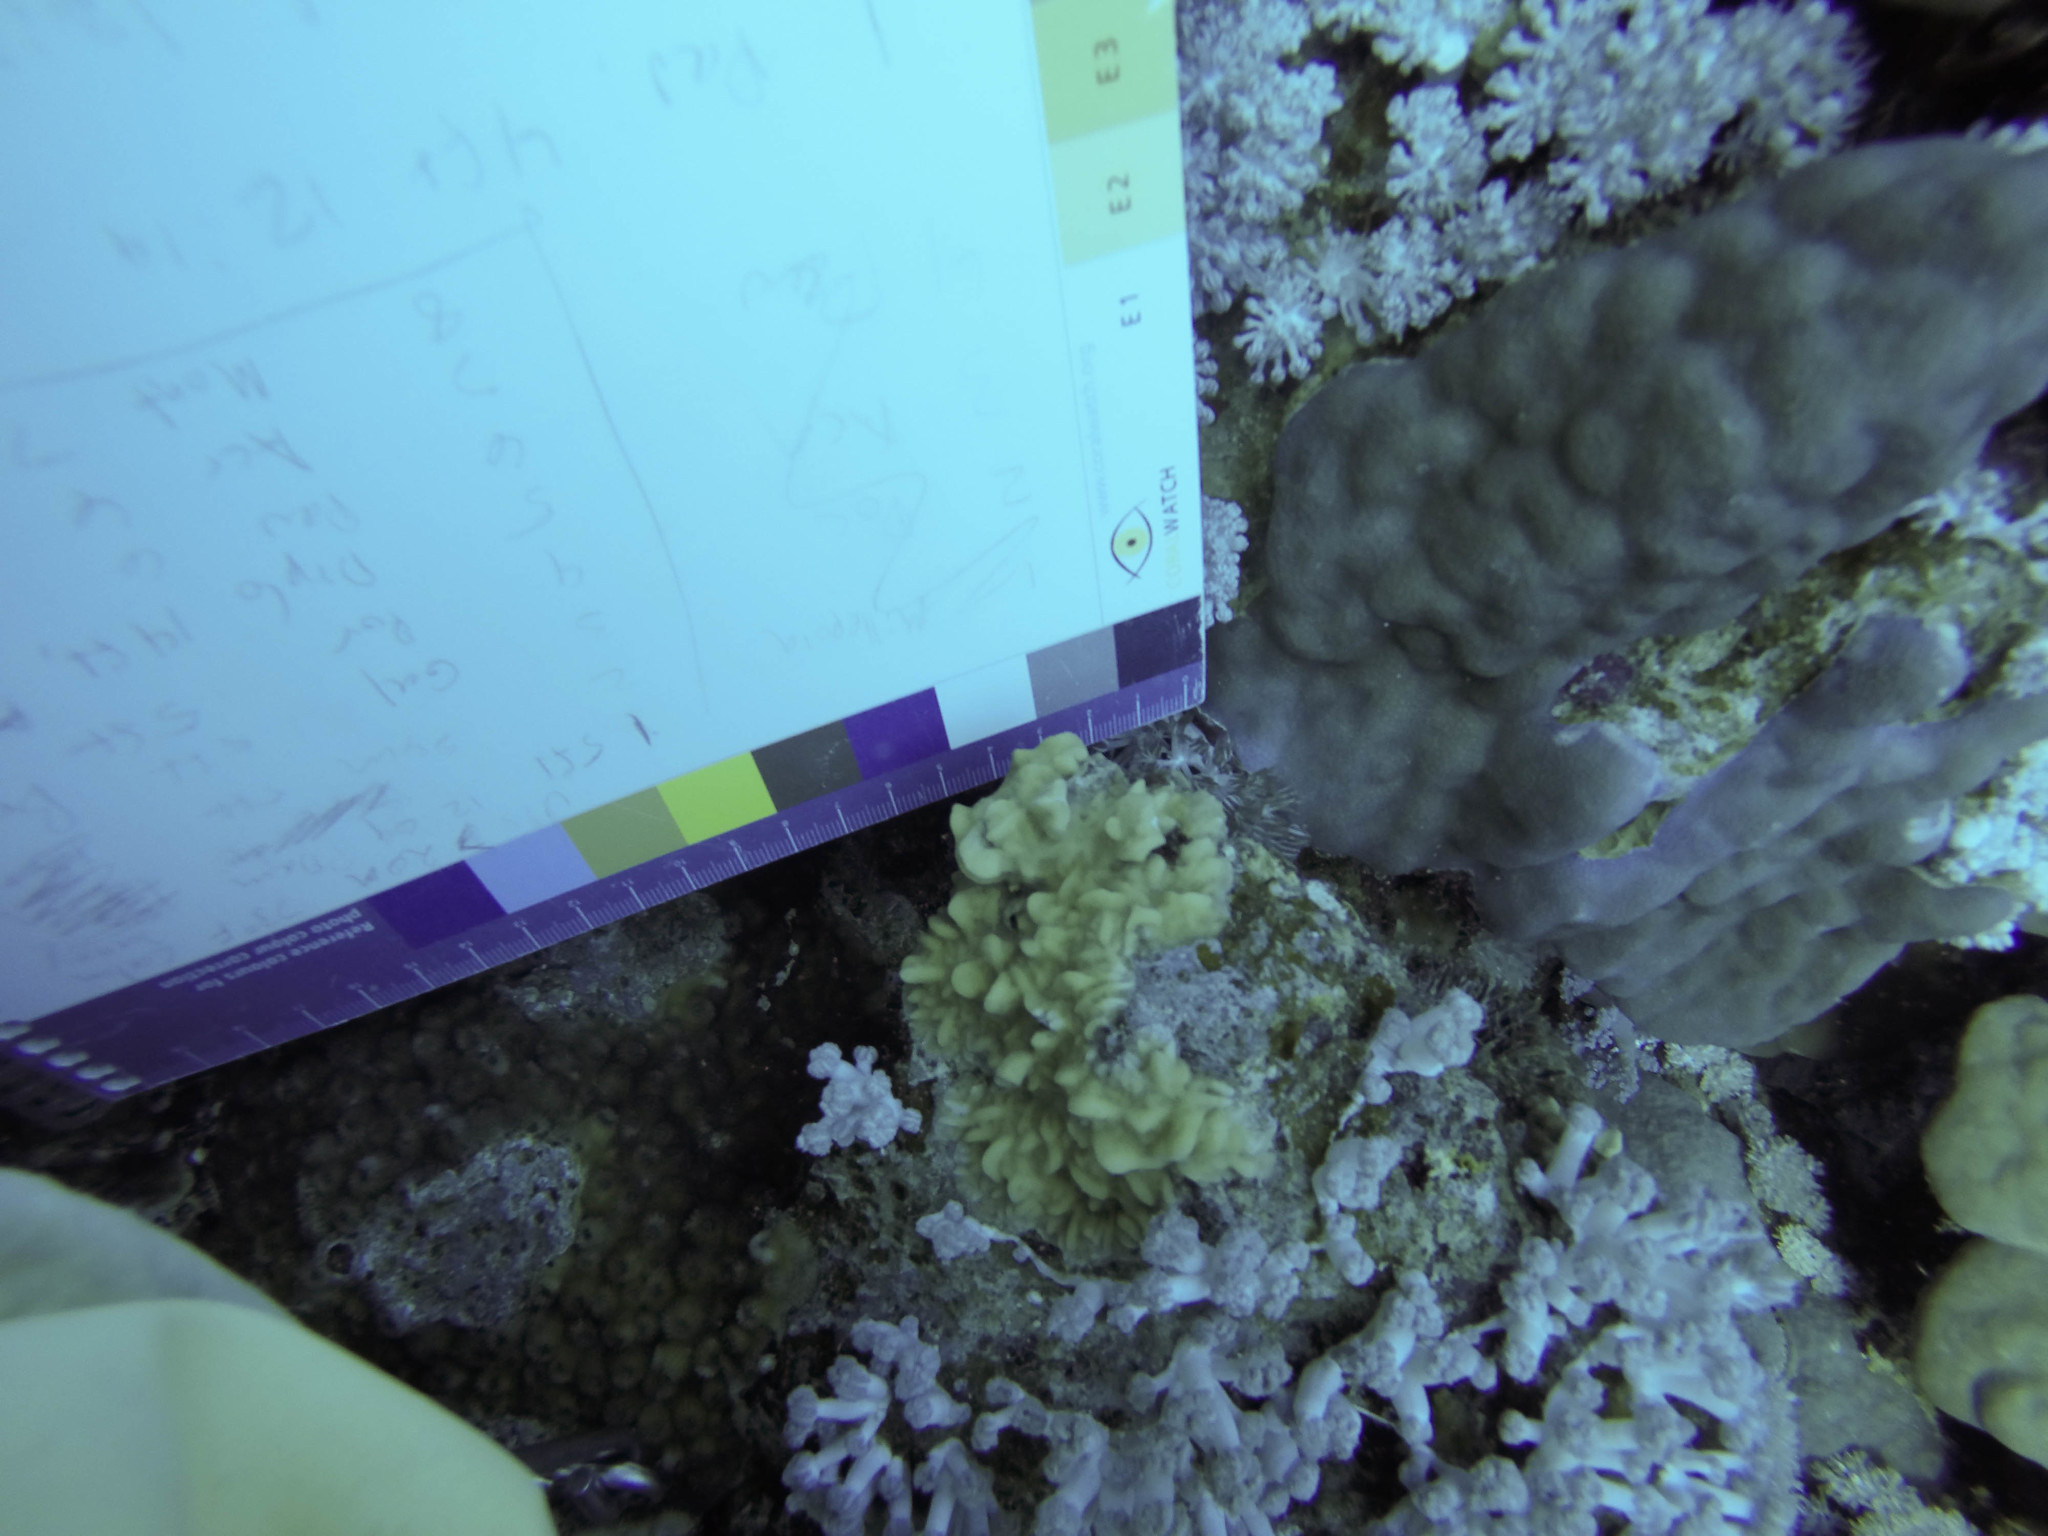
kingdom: Animalia
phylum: Cnidaria
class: Anthozoa
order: Scleractinia
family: Agariciidae
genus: Pavona
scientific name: Pavona varians
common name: Leaf coral
